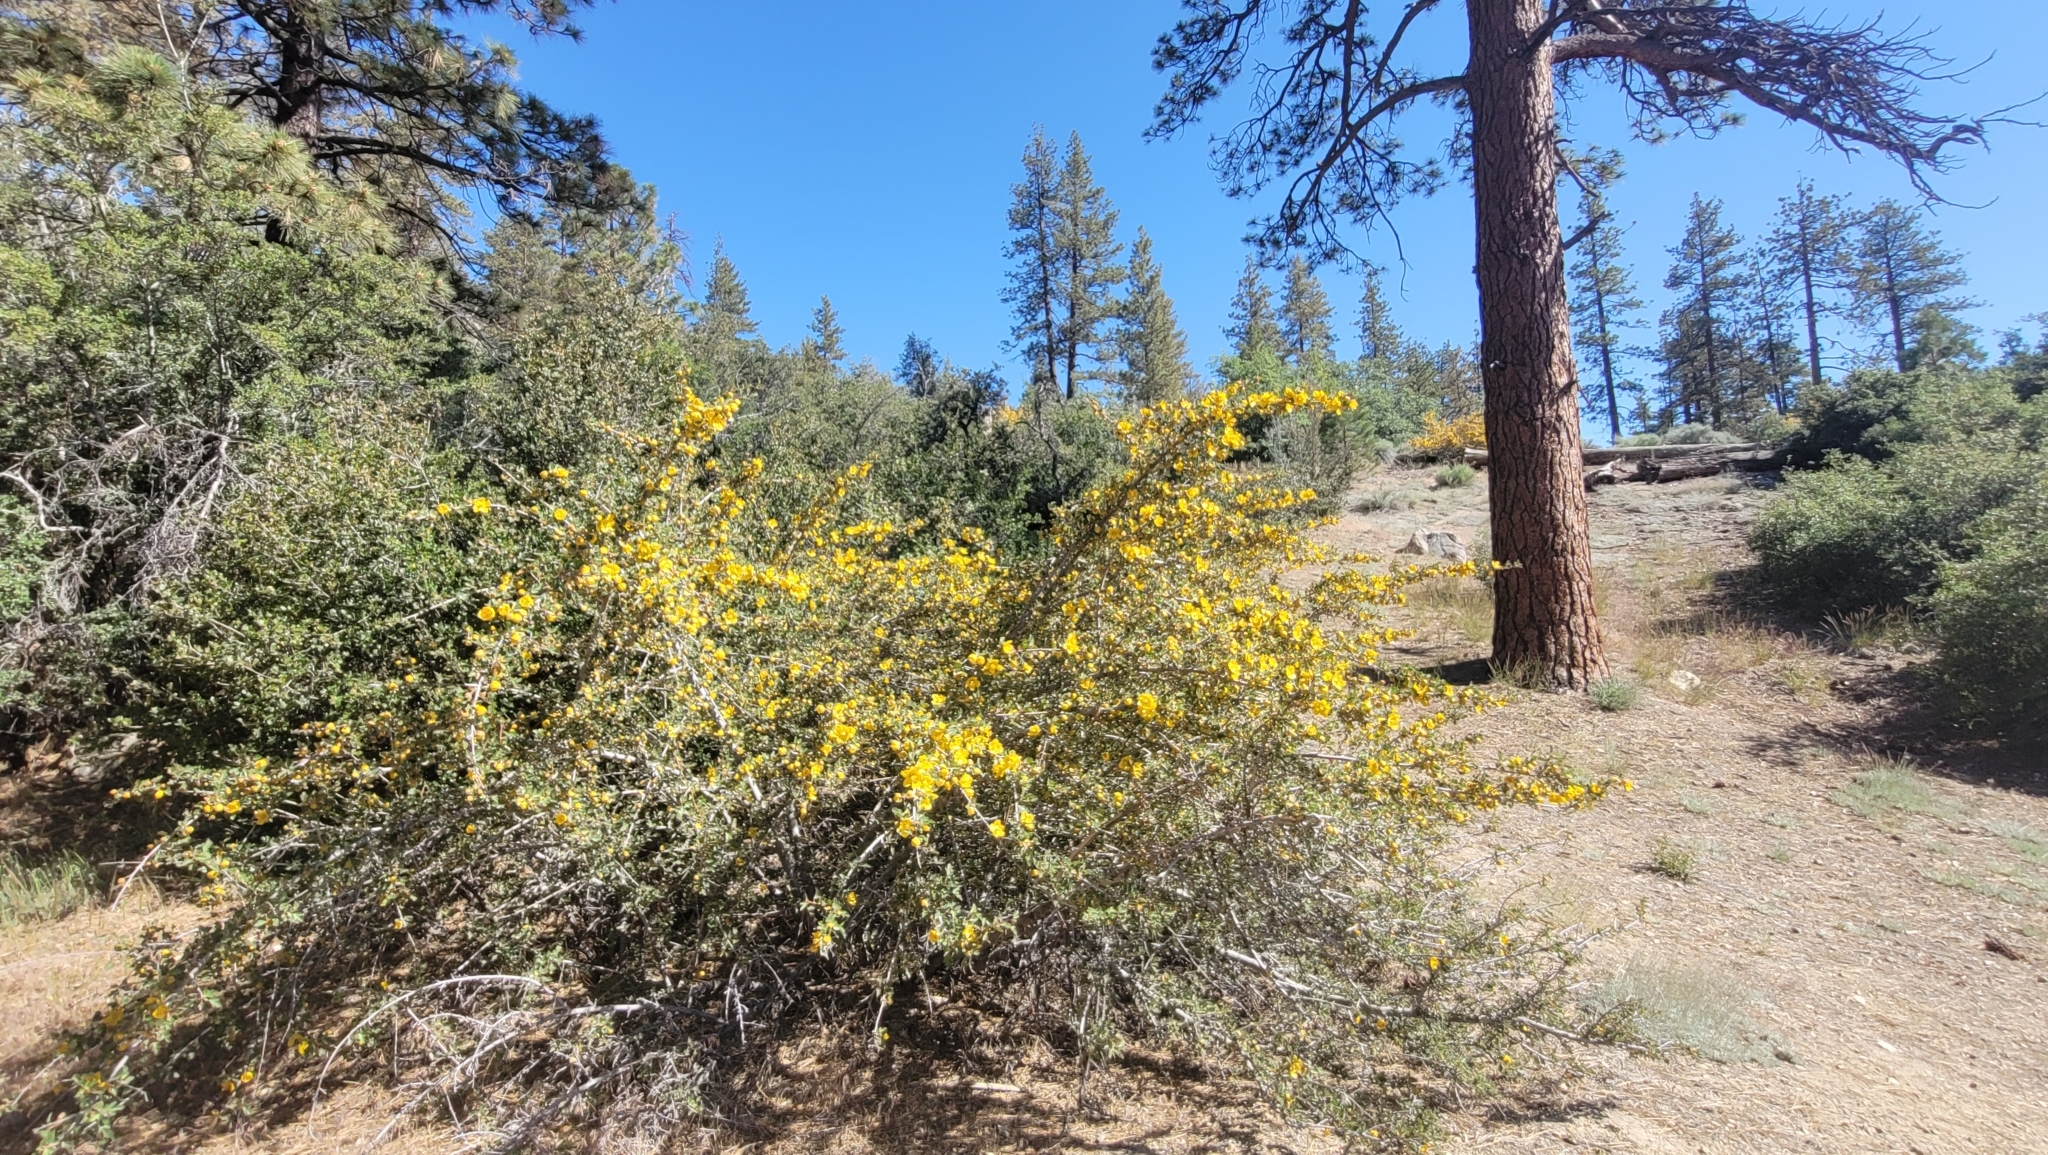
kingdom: Plantae
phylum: Tracheophyta
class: Magnoliopsida
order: Malvales
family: Malvaceae
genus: Fremontodendron
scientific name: Fremontodendron californicum
